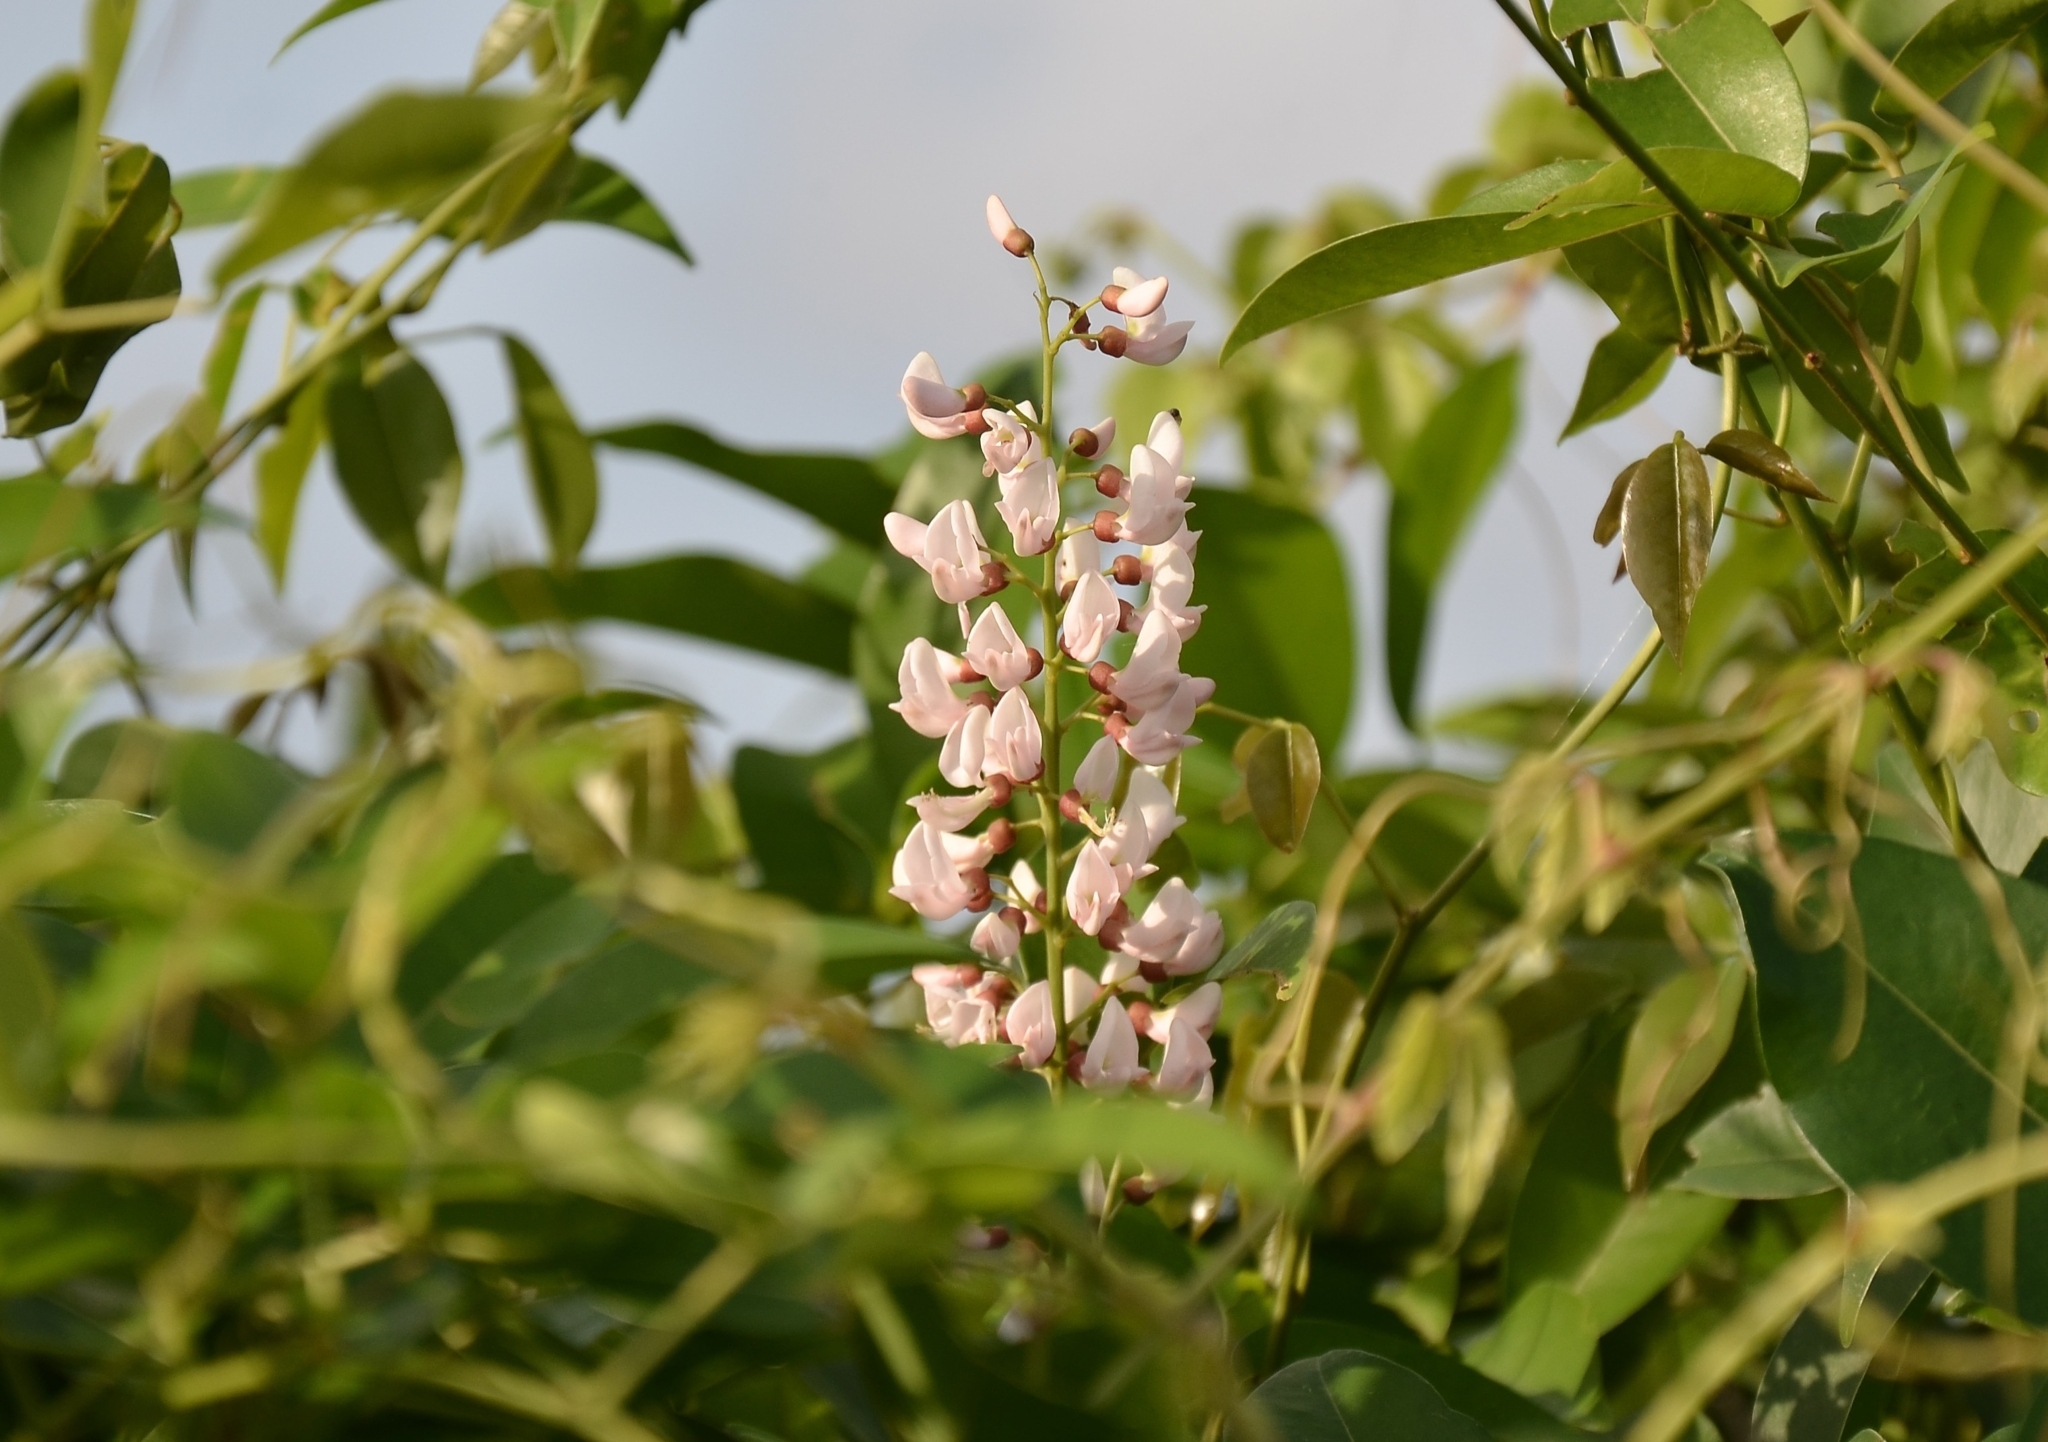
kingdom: Plantae
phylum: Tracheophyta
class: Magnoliopsida
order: Fabales
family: Fabaceae
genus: Derris
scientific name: Derris trifoliata
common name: Three-leaf derris
